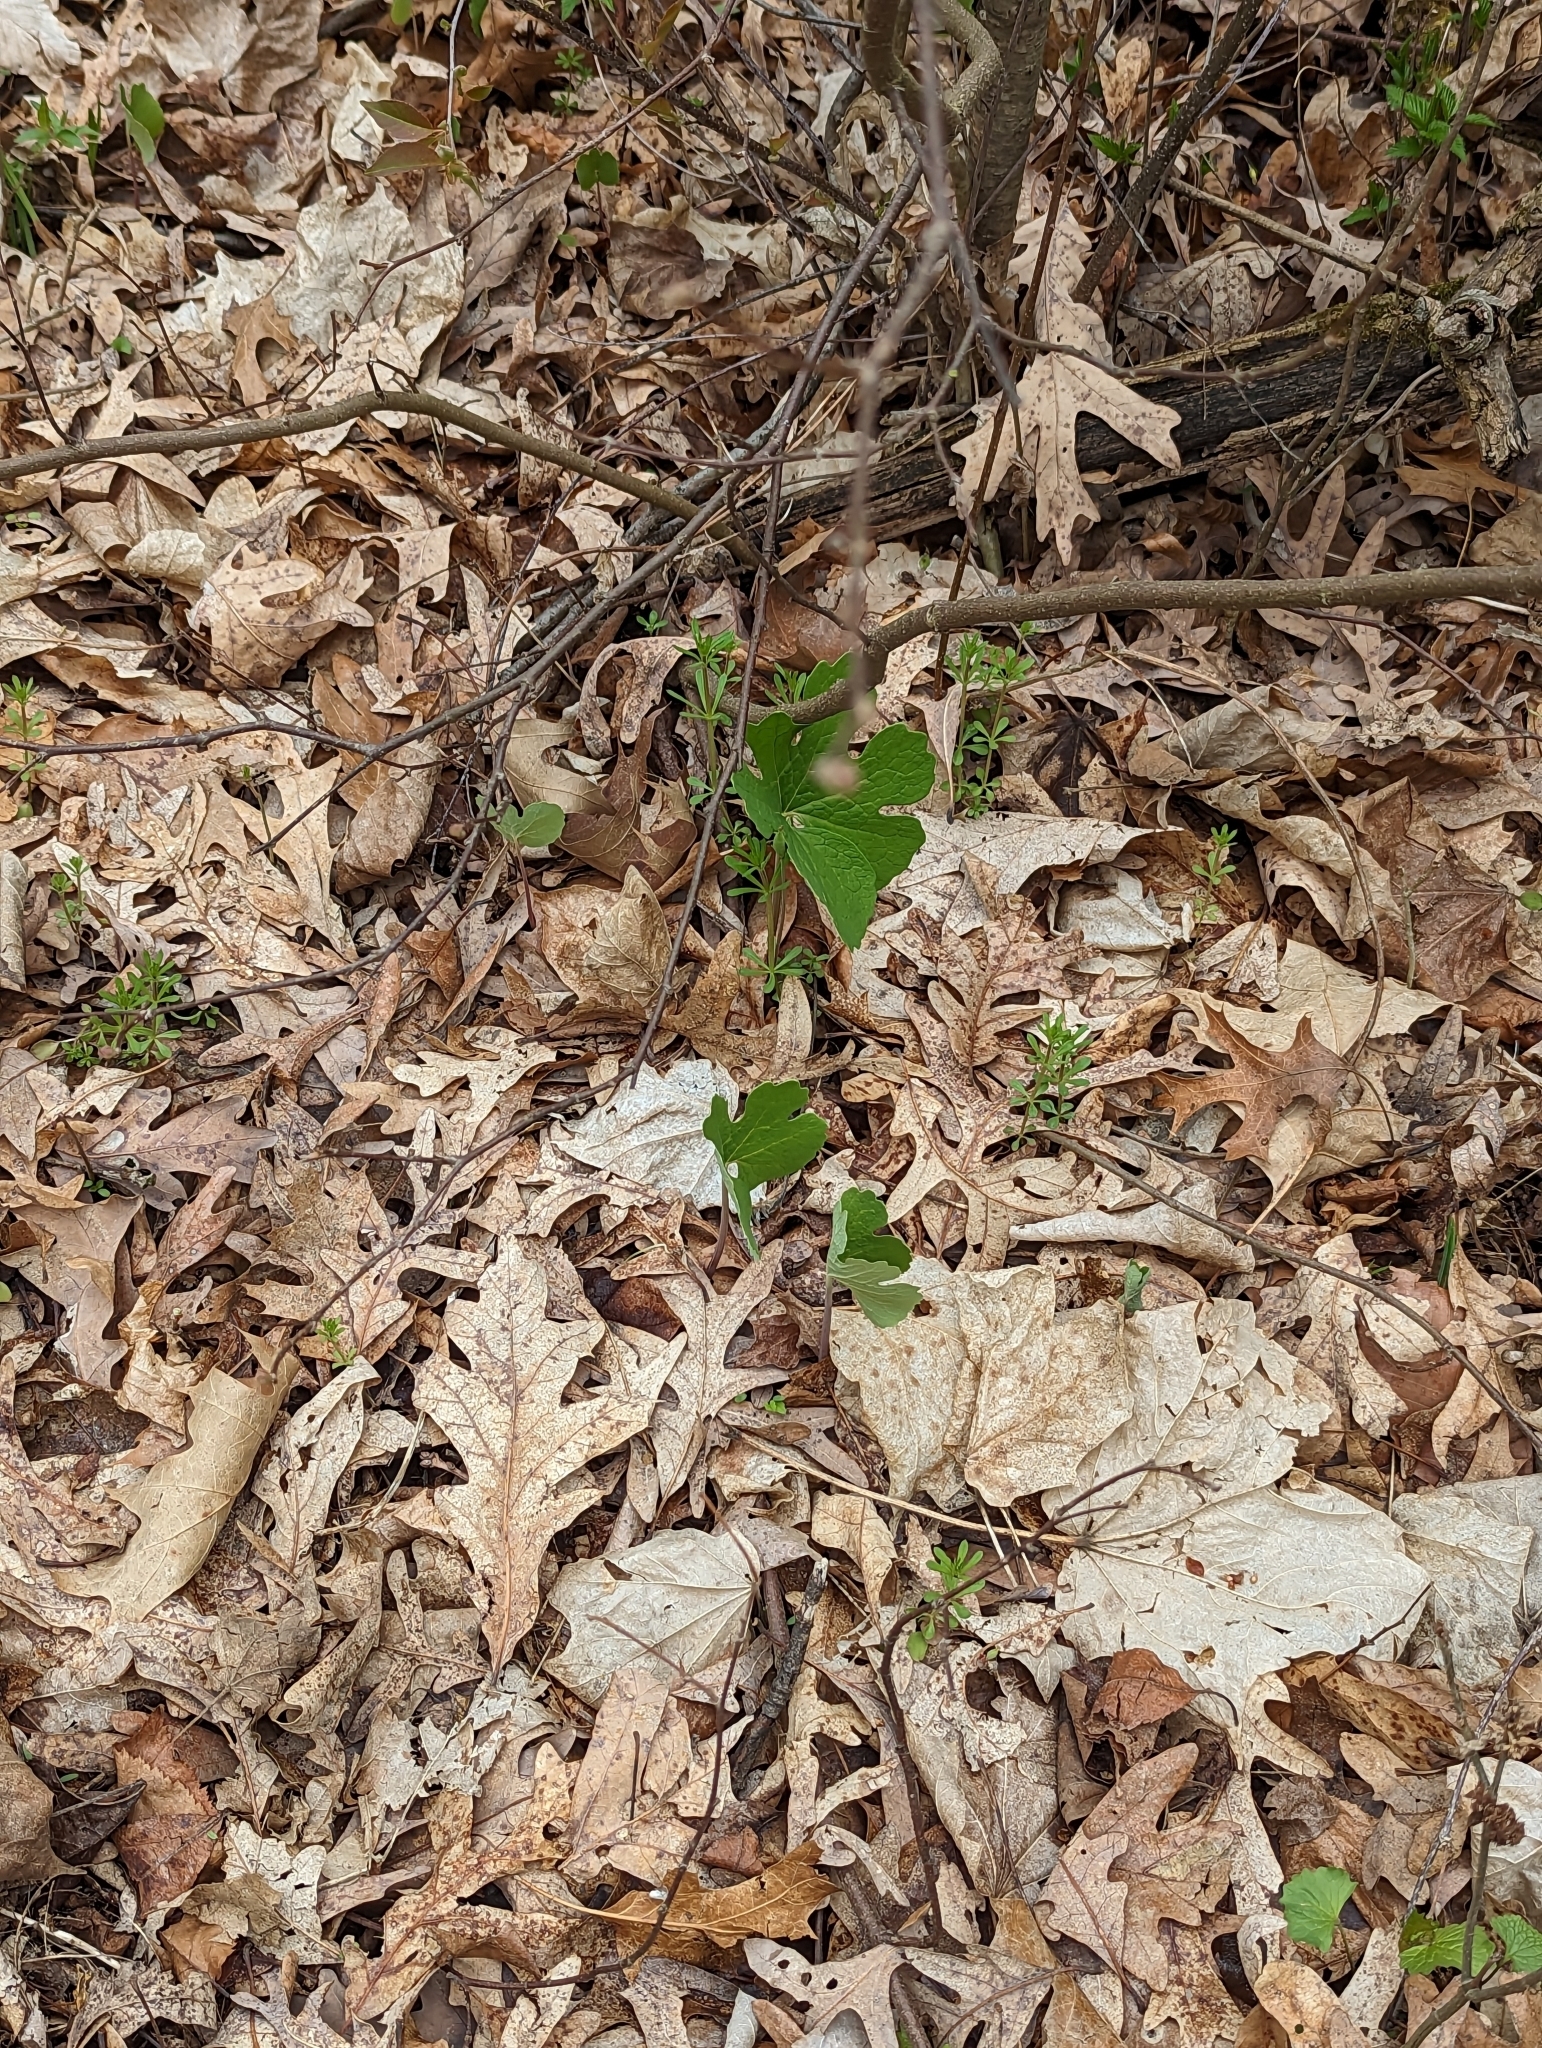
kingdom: Plantae
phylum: Tracheophyta
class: Magnoliopsida
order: Ranunculales
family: Papaveraceae
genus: Sanguinaria
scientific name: Sanguinaria canadensis
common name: Bloodroot
